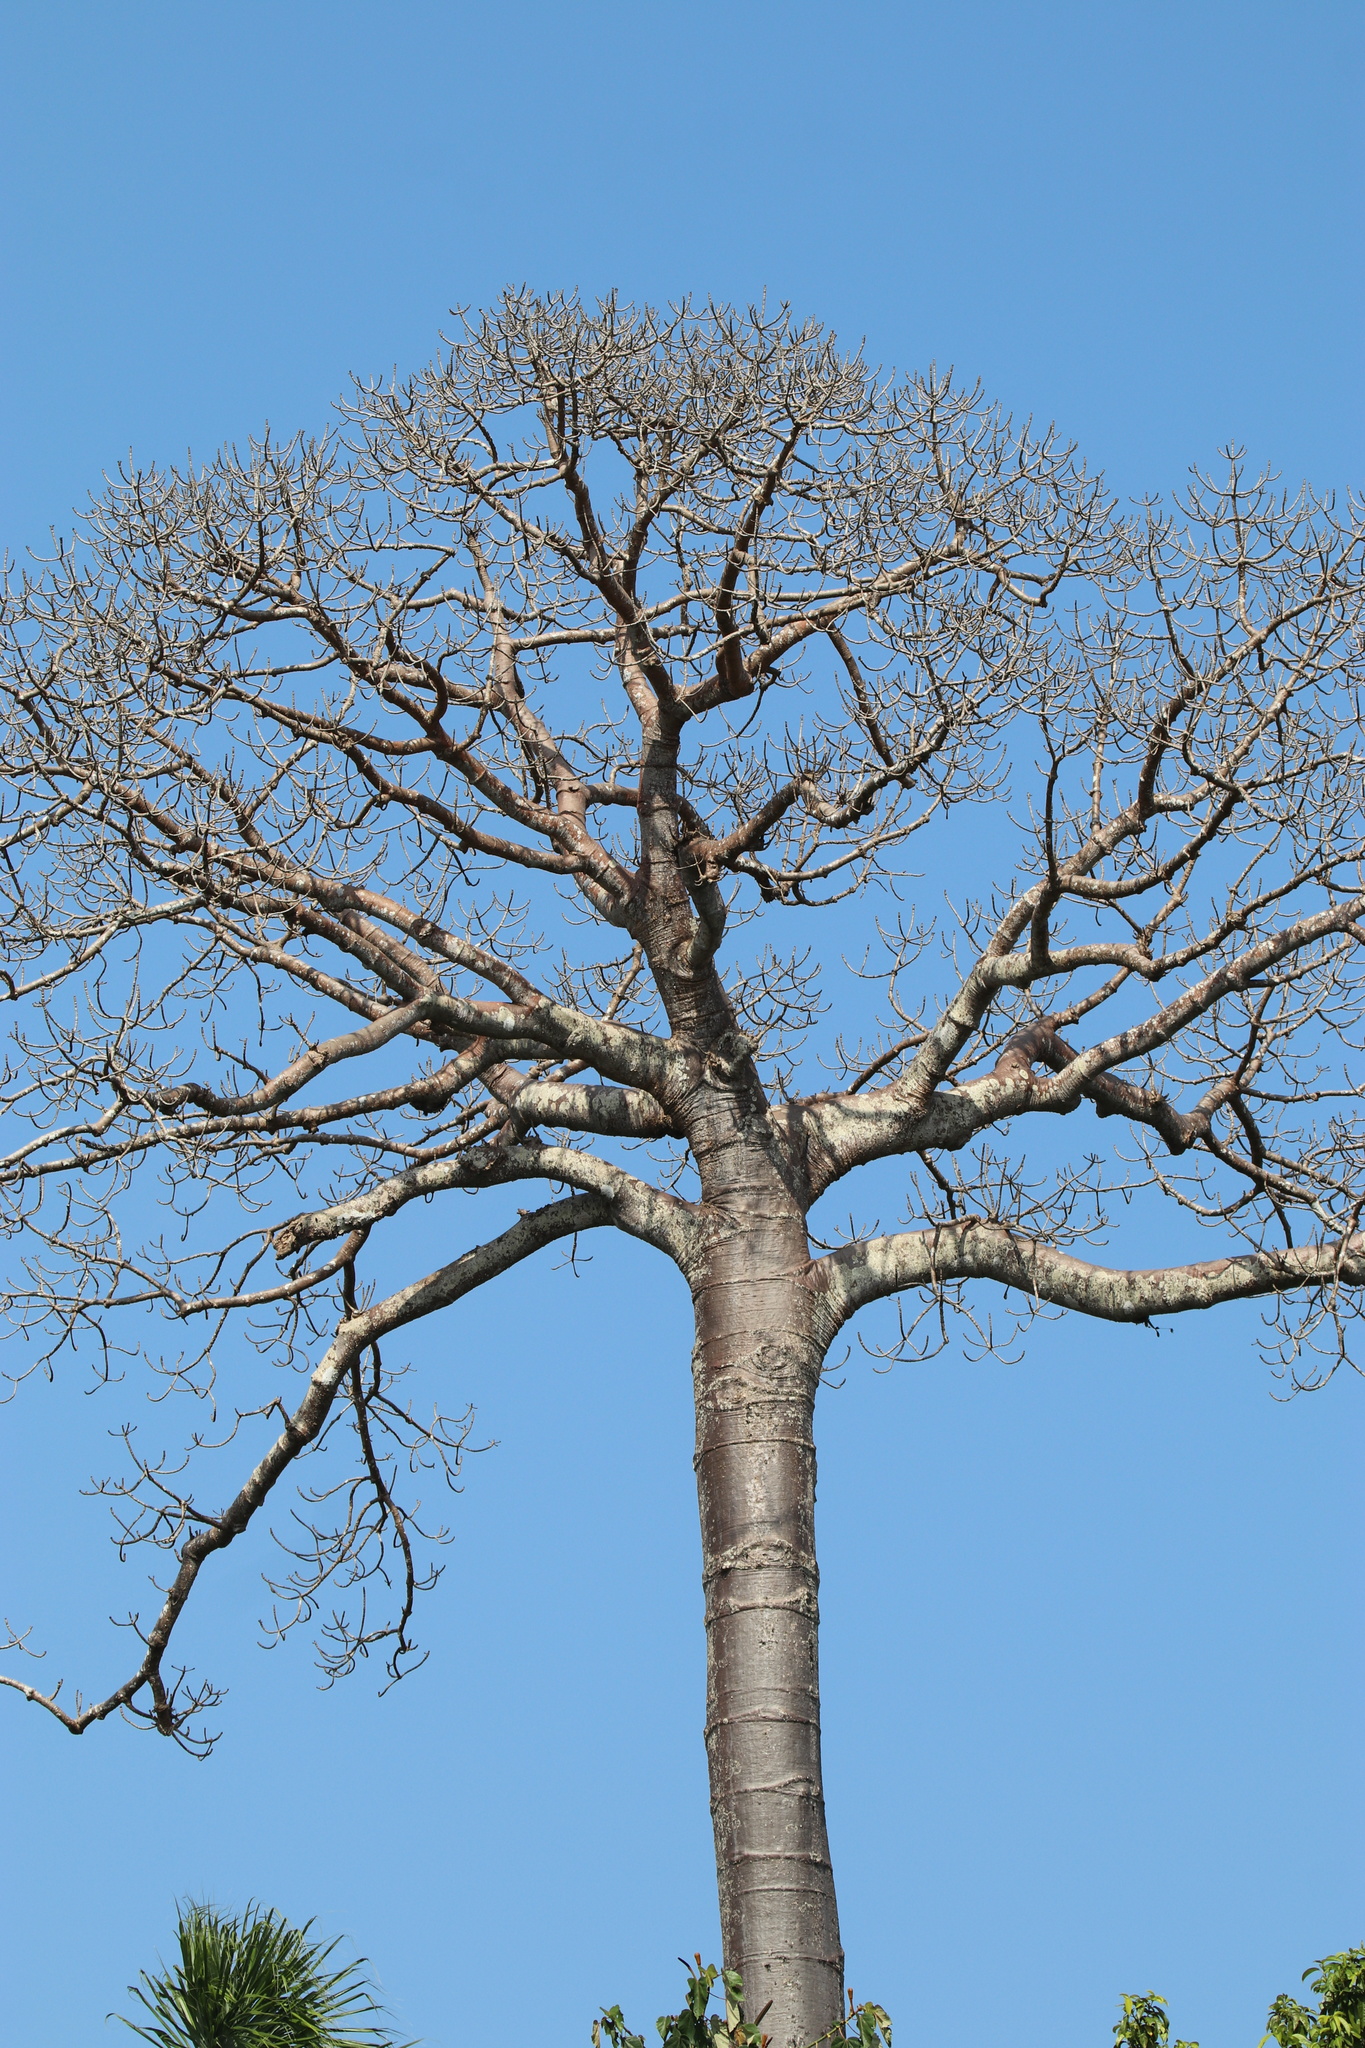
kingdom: Plantae
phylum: Tracheophyta
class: Magnoliopsida
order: Malvales
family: Malvaceae
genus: Cavanillesia
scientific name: Cavanillesia platanifolia
